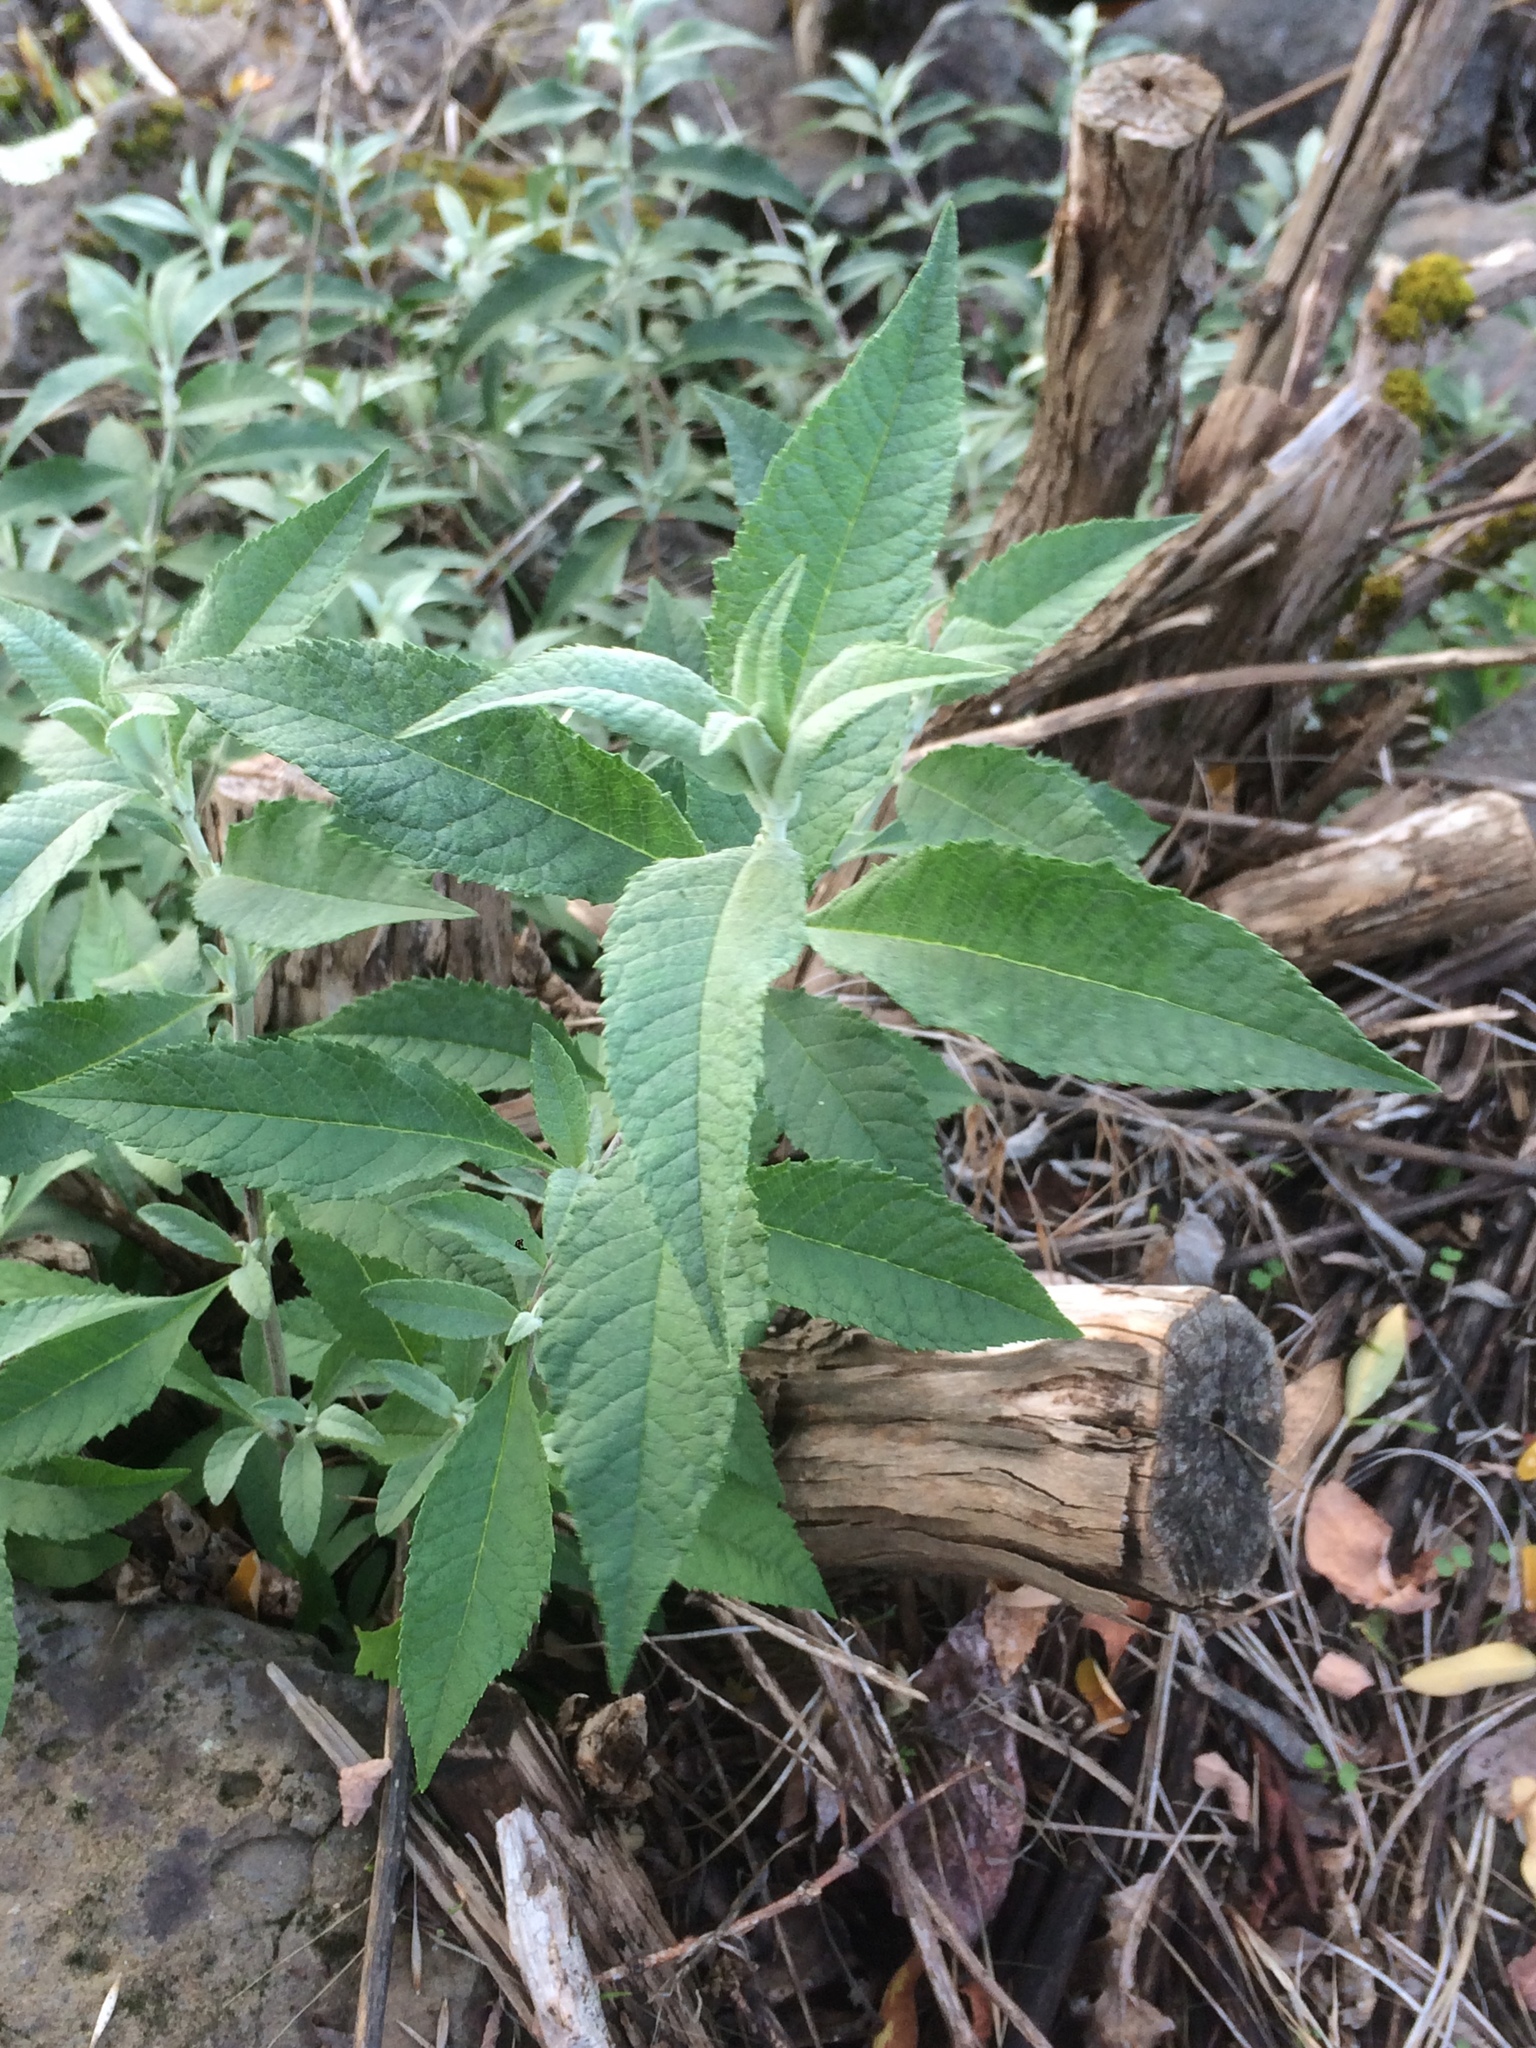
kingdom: Plantae
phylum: Tracheophyta
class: Magnoliopsida
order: Lamiales
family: Scrophulariaceae
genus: Buddleja
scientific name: Buddleja davidii
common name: Butterfly-bush
